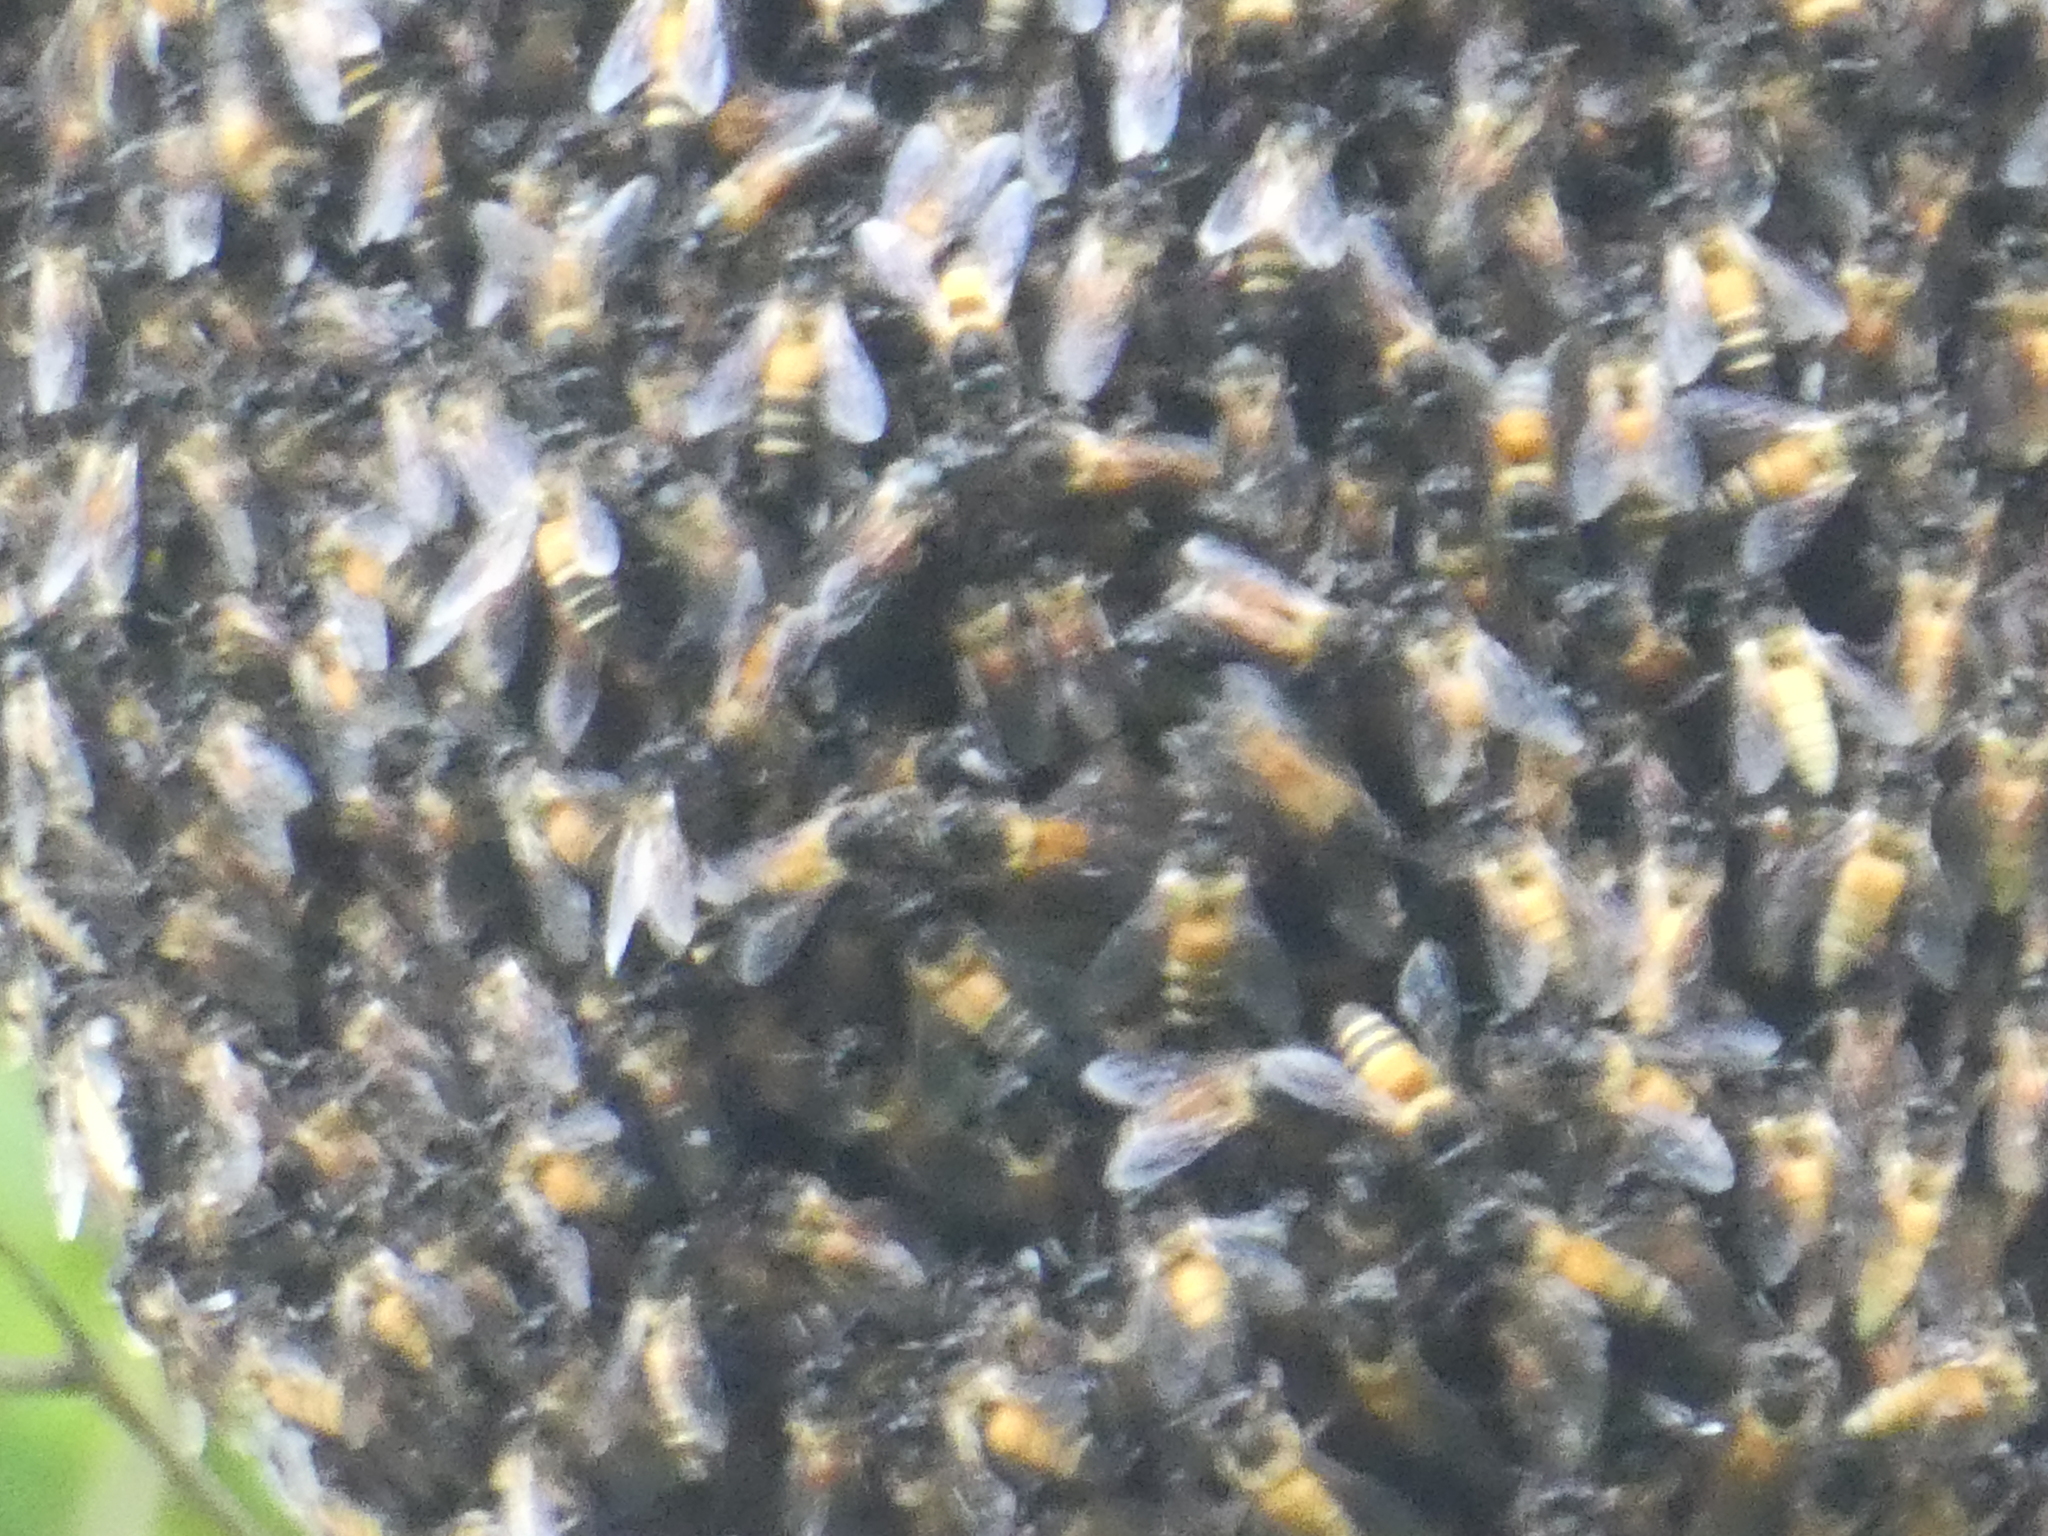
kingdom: Animalia
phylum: Arthropoda
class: Insecta
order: Hymenoptera
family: Apidae
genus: Apis
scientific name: Apis dorsata
